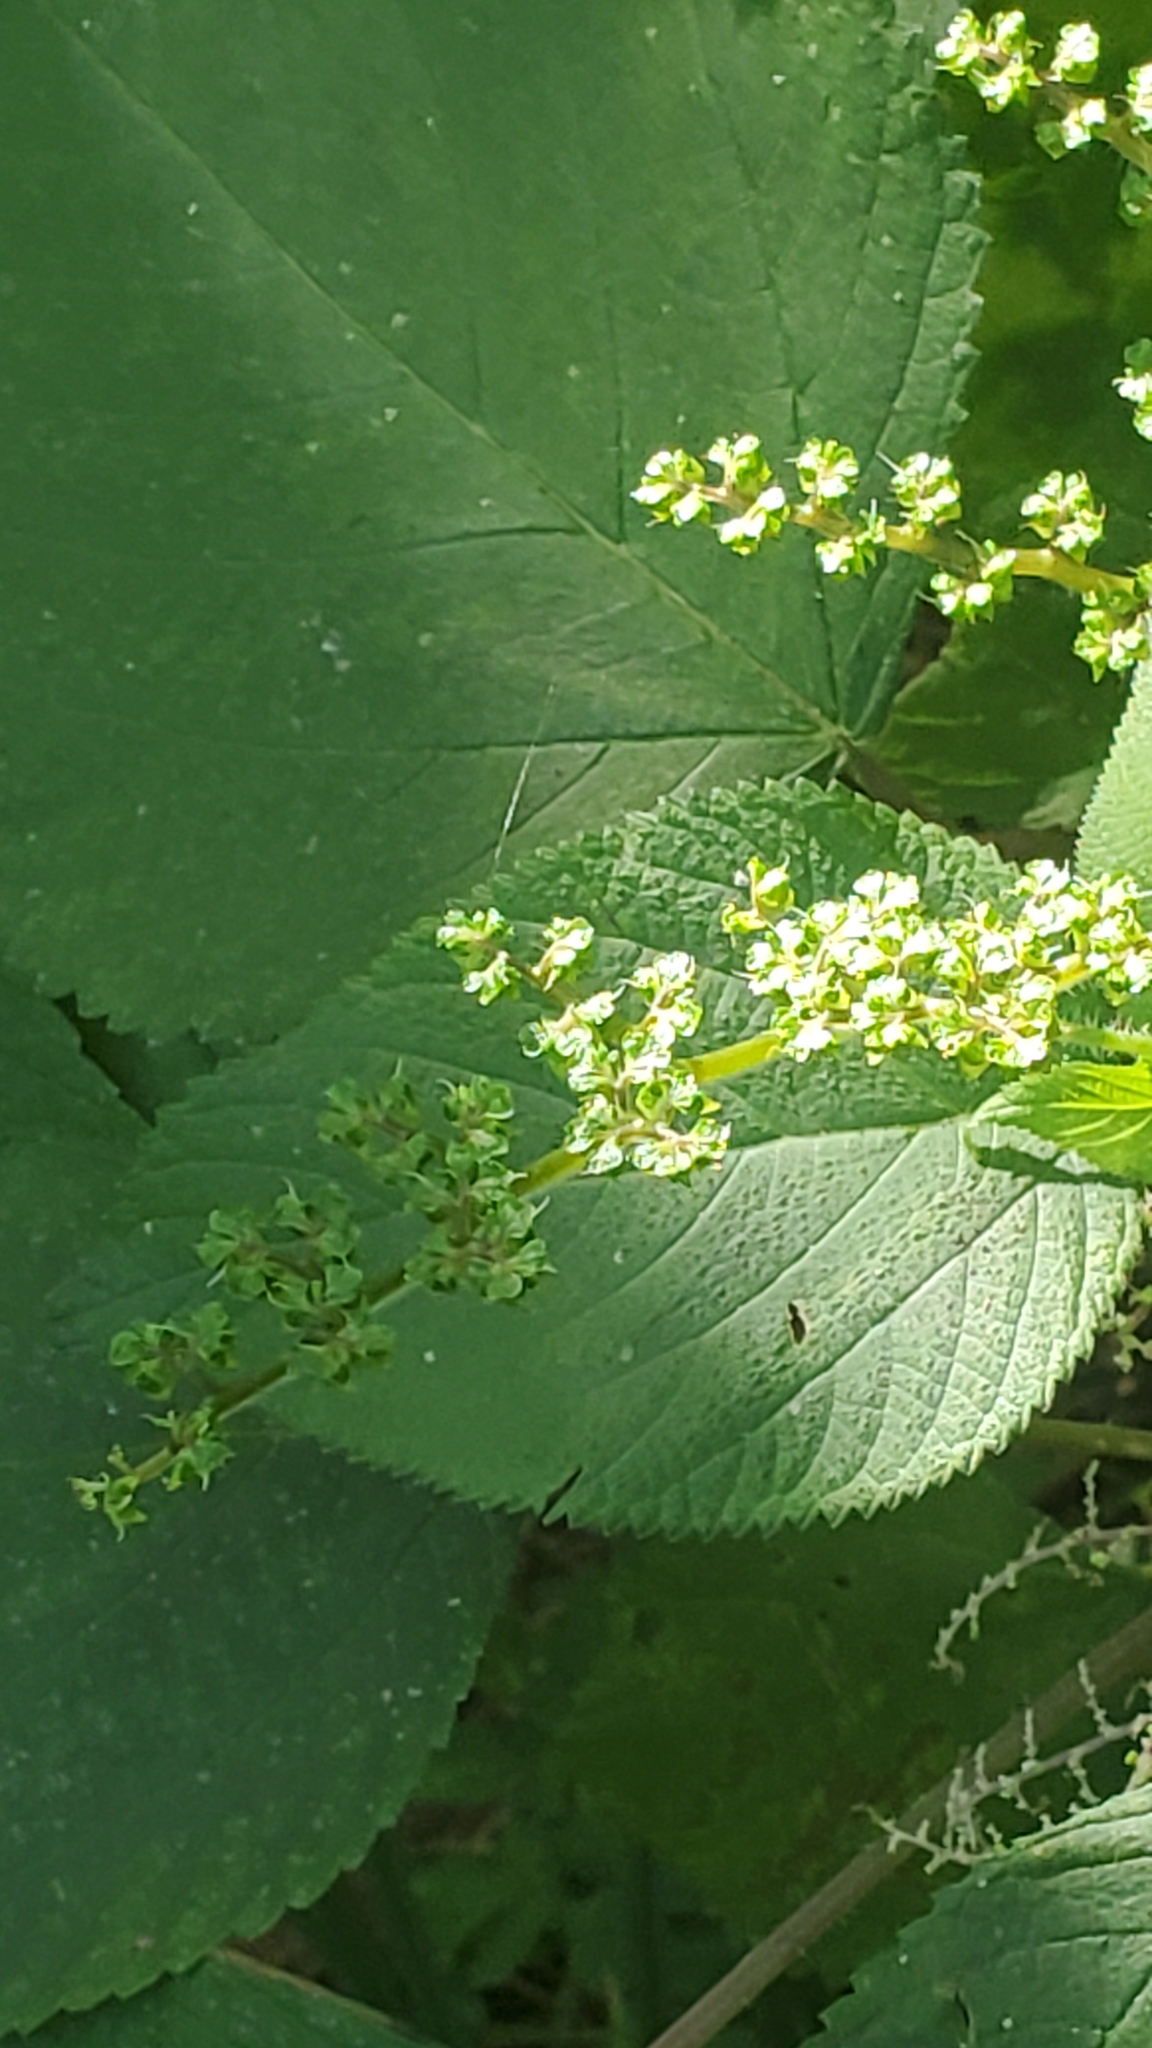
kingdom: Plantae
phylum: Tracheophyta
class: Magnoliopsida
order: Rosales
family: Urticaceae
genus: Laportea
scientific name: Laportea canadensis
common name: Canada nettle
